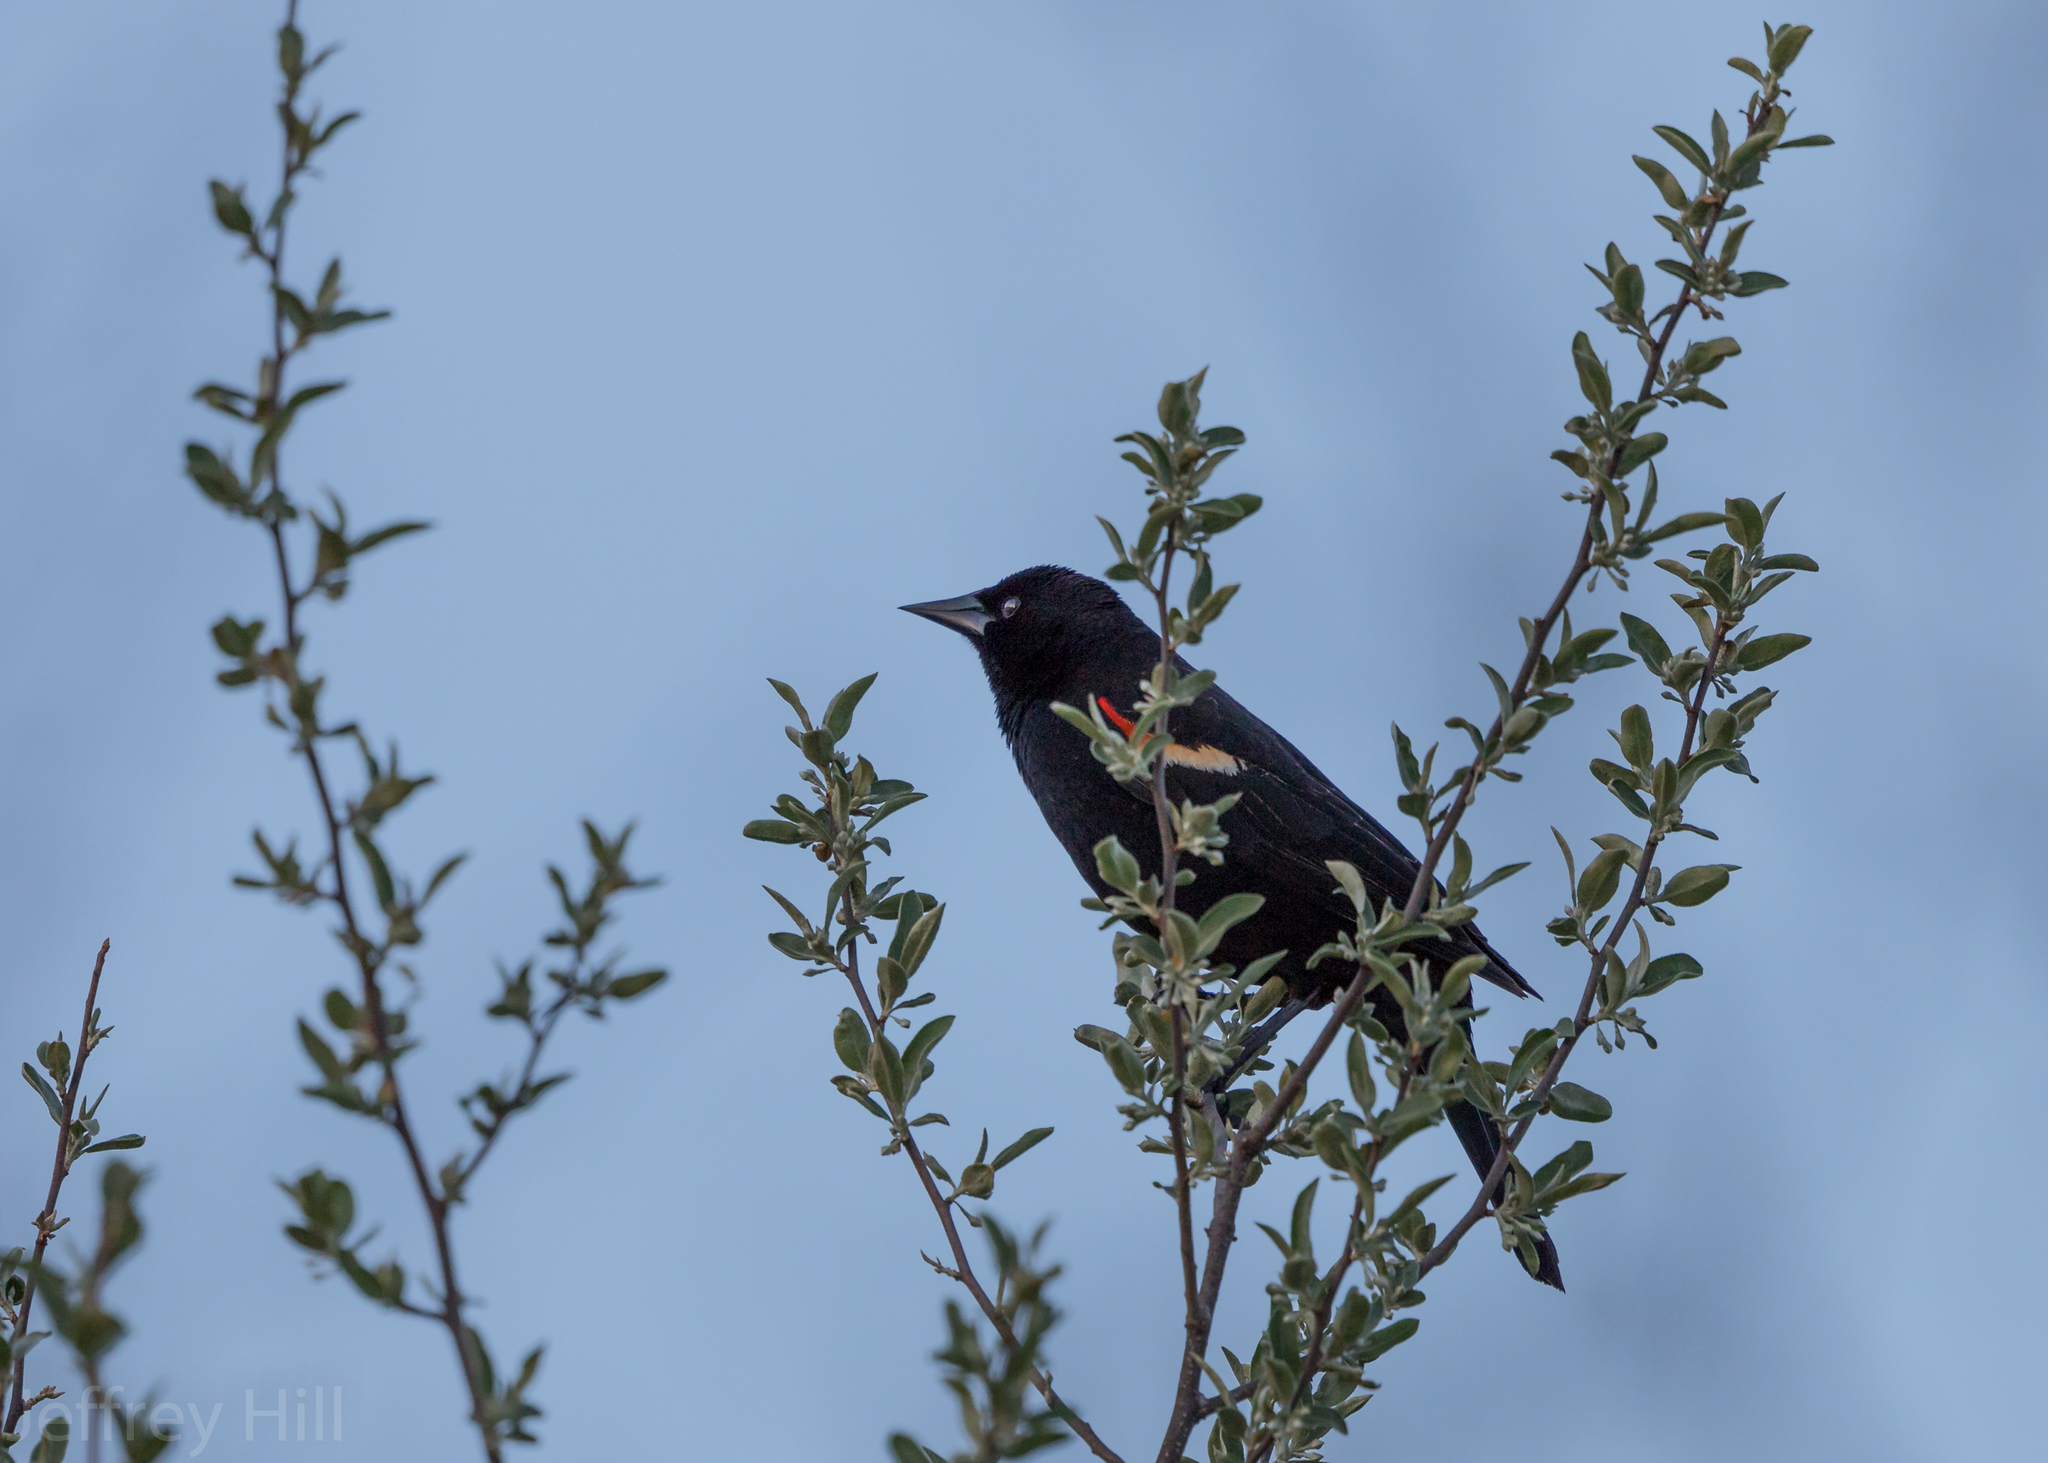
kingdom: Animalia
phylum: Chordata
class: Aves
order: Passeriformes
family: Icteridae
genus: Agelaius
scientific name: Agelaius phoeniceus
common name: Red-winged blackbird
